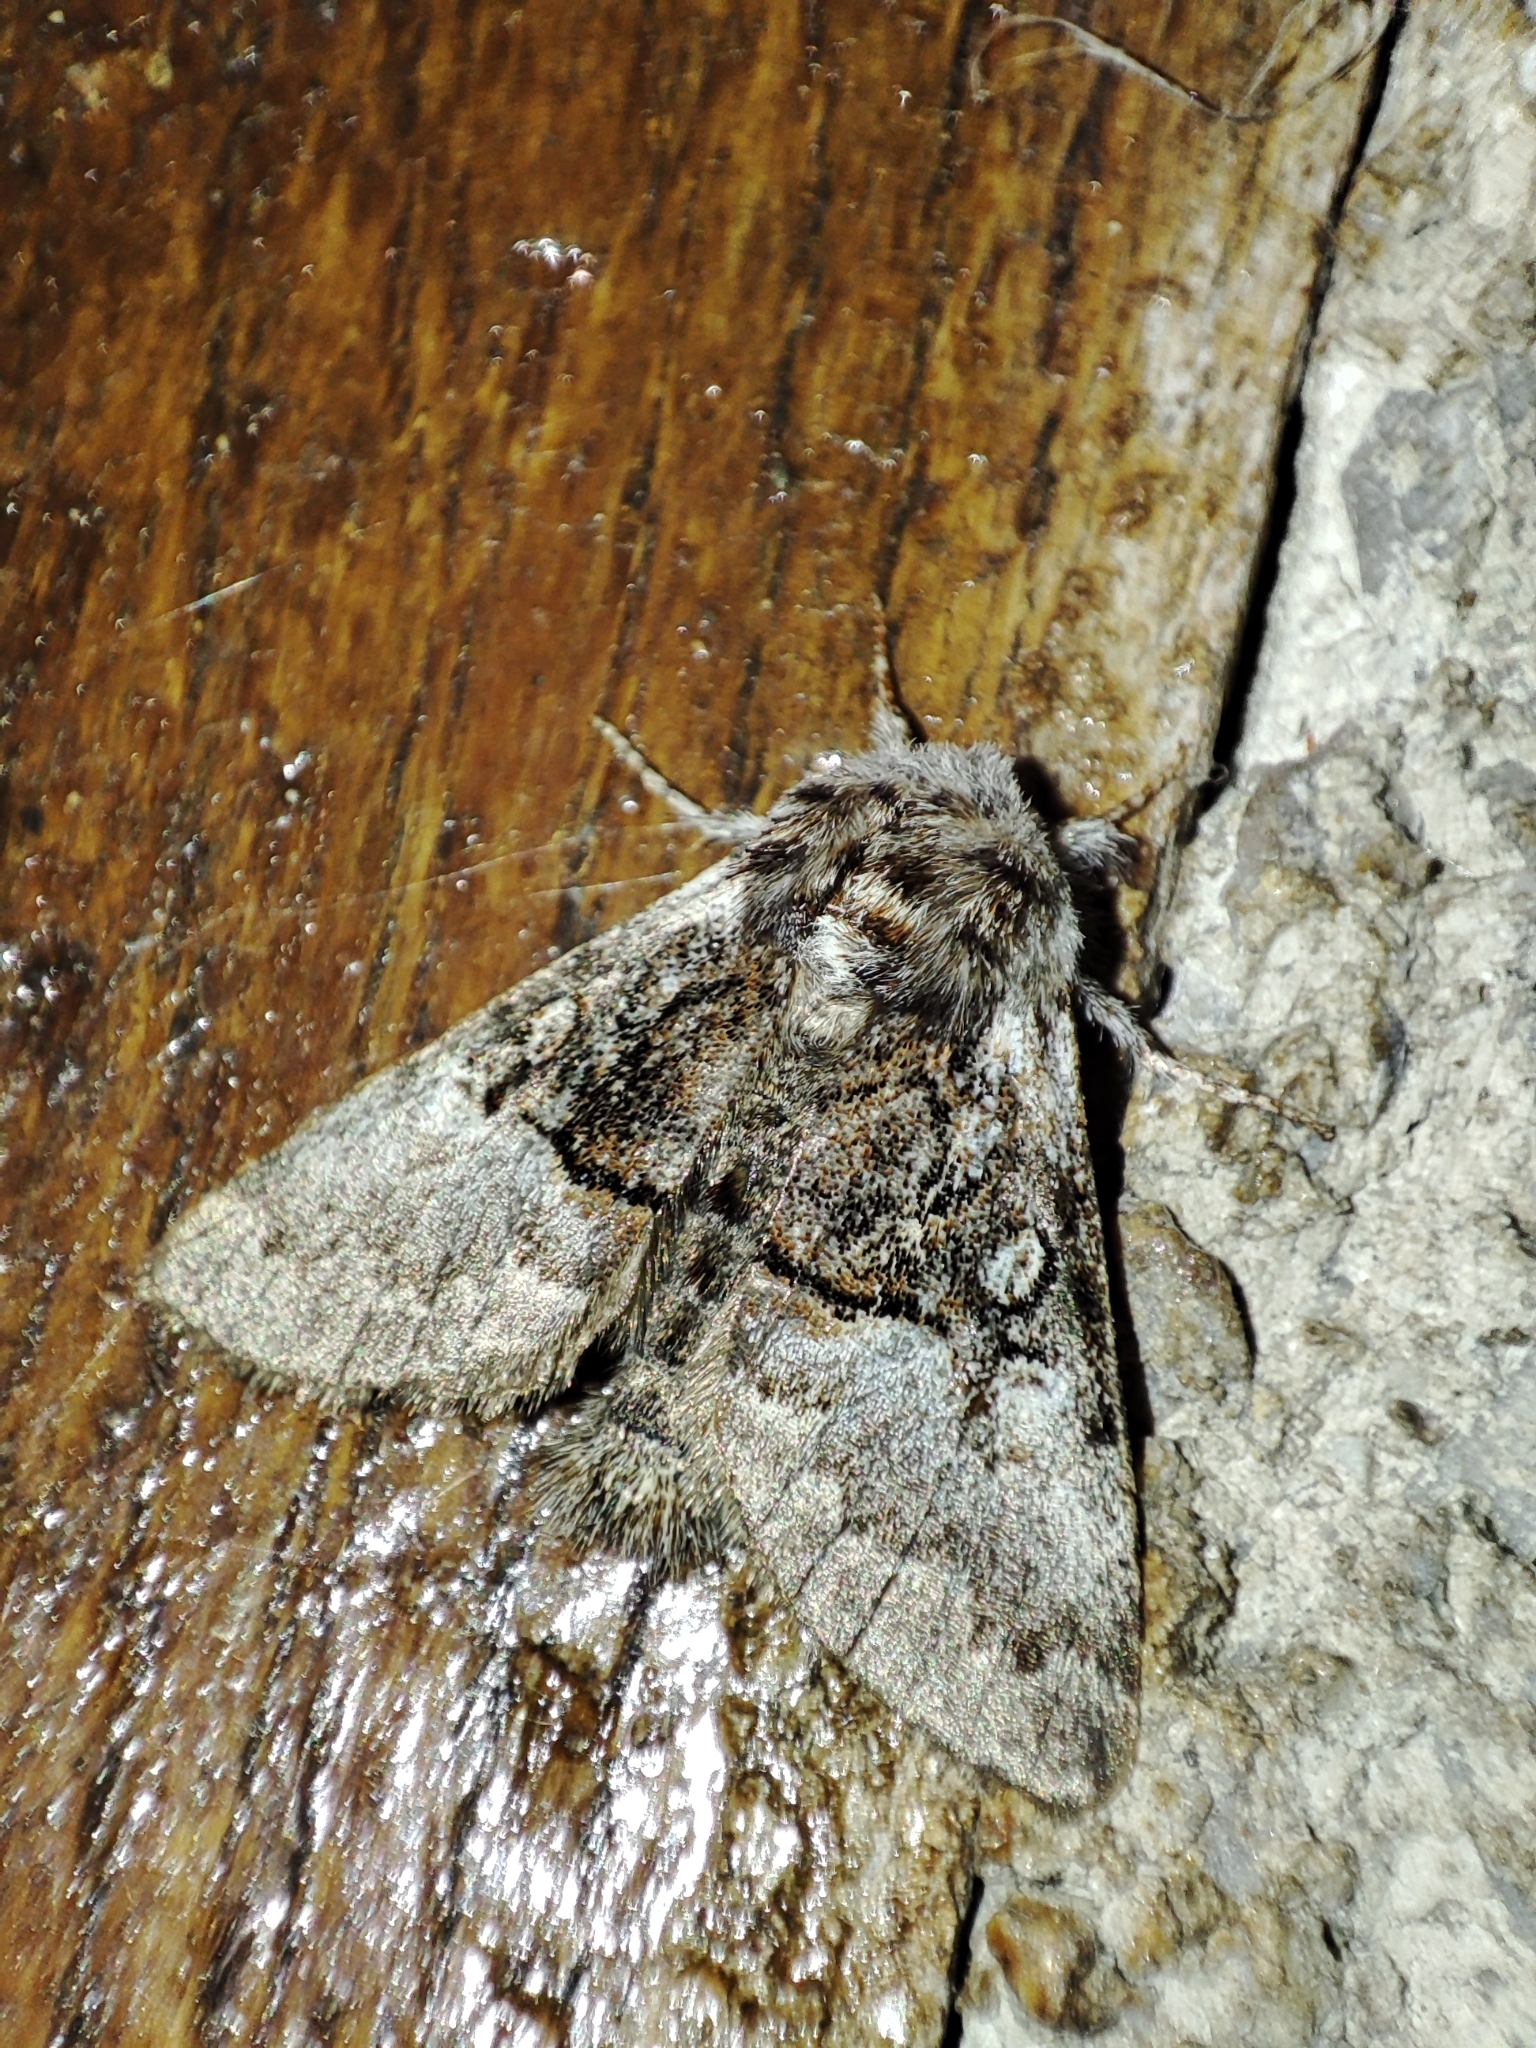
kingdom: Animalia
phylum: Arthropoda
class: Insecta
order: Lepidoptera
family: Noctuidae
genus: Colocasia
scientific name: Colocasia coryli
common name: Nut-tree tussock
